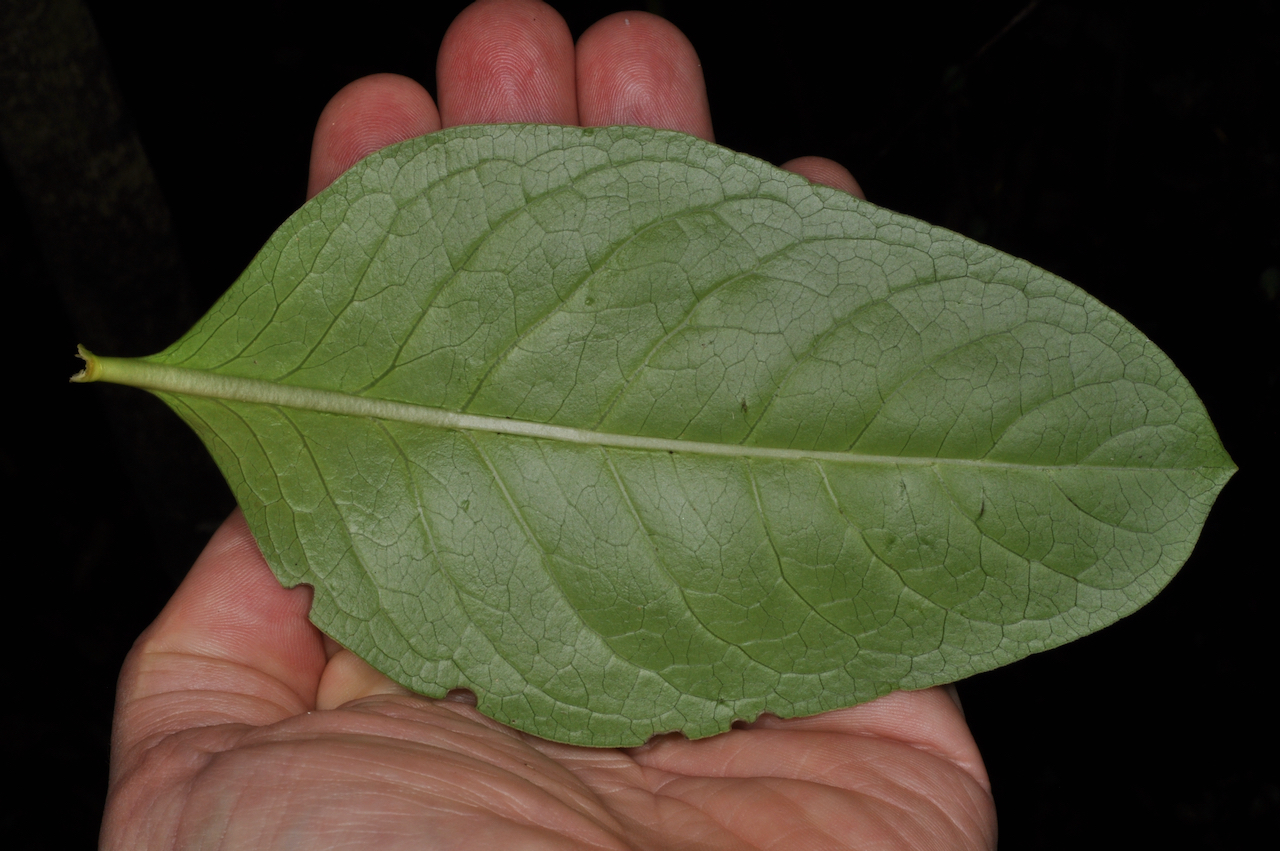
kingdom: Plantae
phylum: Tracheophyta
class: Magnoliopsida
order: Gentianales
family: Rubiaceae
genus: Coprosma
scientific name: Coprosma robusta
